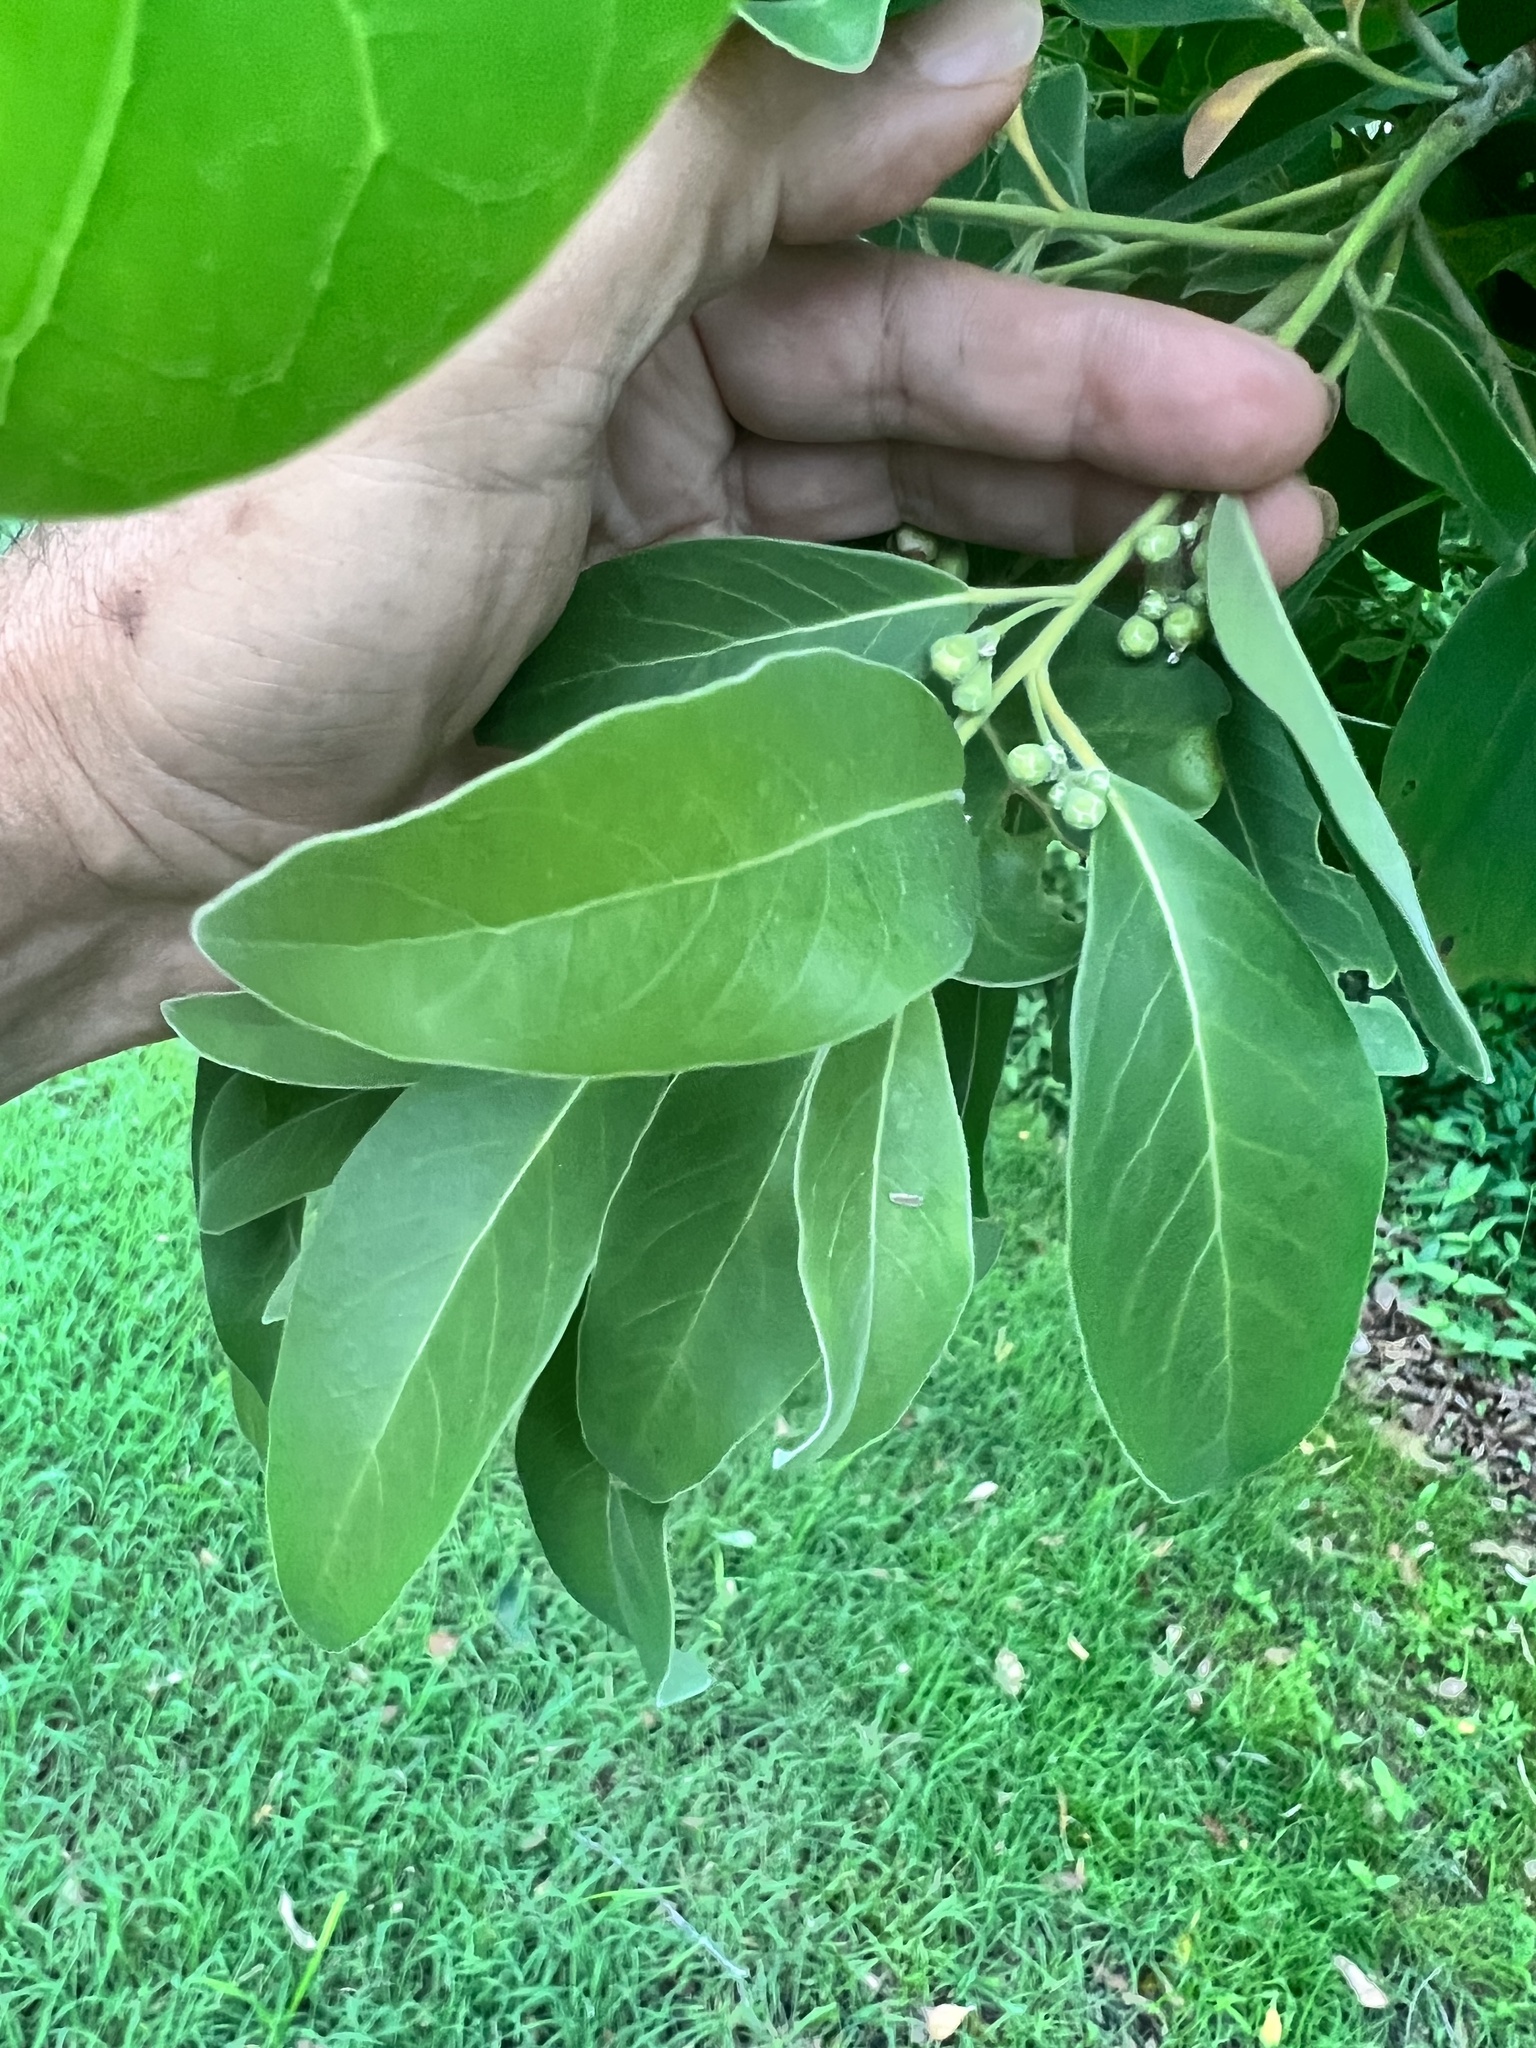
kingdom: Plantae
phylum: Tracheophyta
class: Magnoliopsida
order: Myrtales
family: Myrtaceae
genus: Lophostemon
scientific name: Lophostemon suaveolens
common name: Paperbark-mahogany
